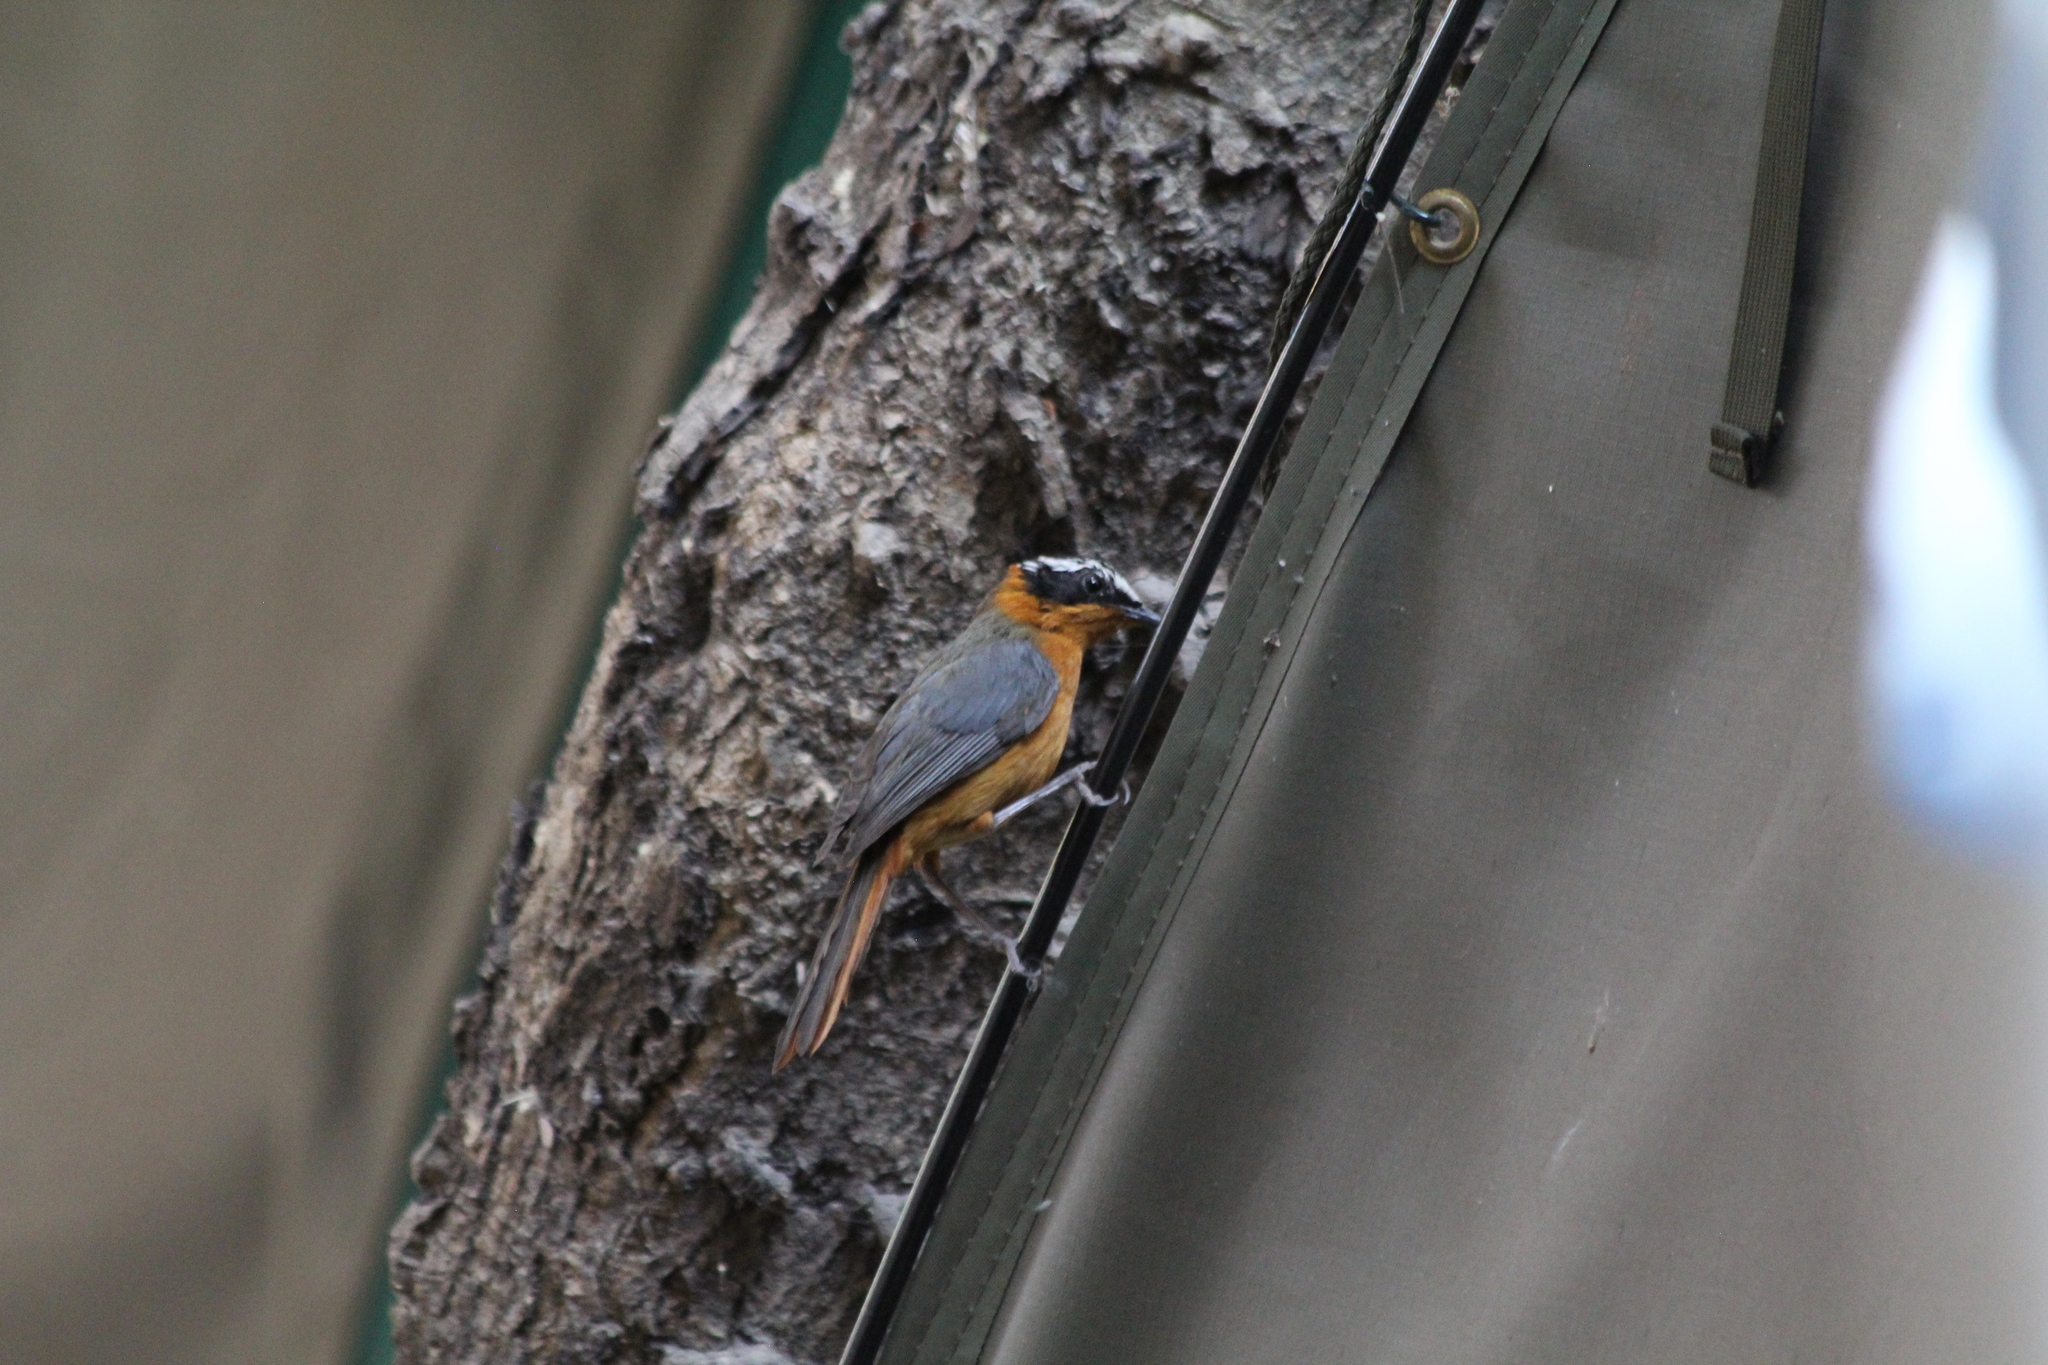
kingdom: Animalia
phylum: Chordata
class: Aves
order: Passeriformes
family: Muscicapidae
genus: Cossypha
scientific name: Cossypha heuglini
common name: White-browed robin-chat
